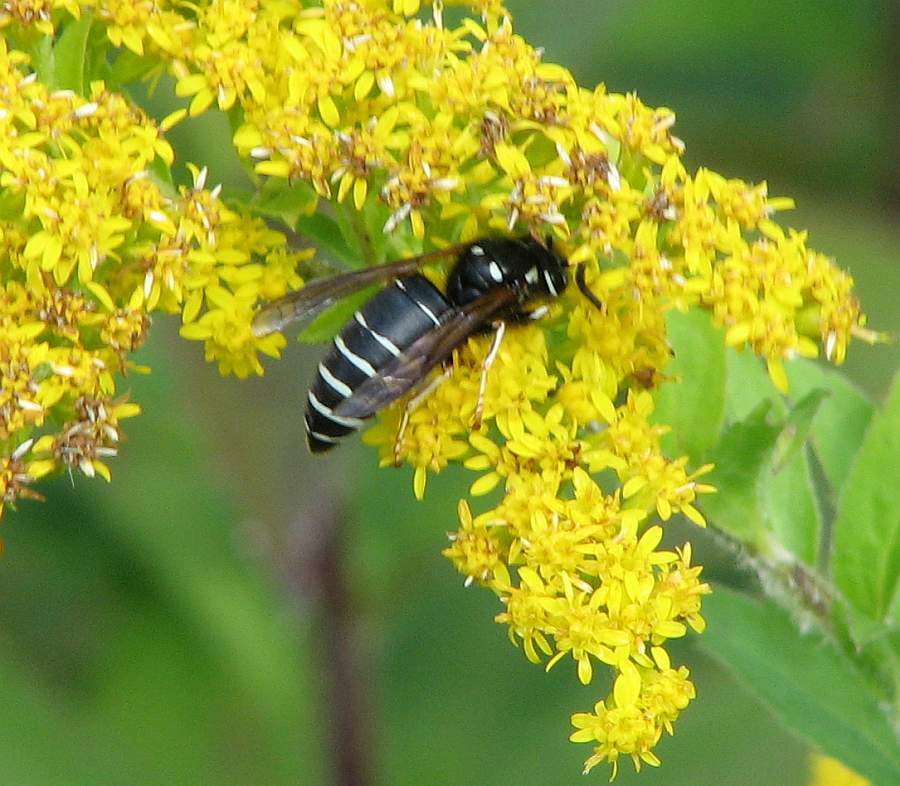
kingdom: Animalia
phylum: Arthropoda
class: Insecta
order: Hymenoptera
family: Vespidae
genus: Vespula
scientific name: Vespula consobrina
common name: Blackjacket
